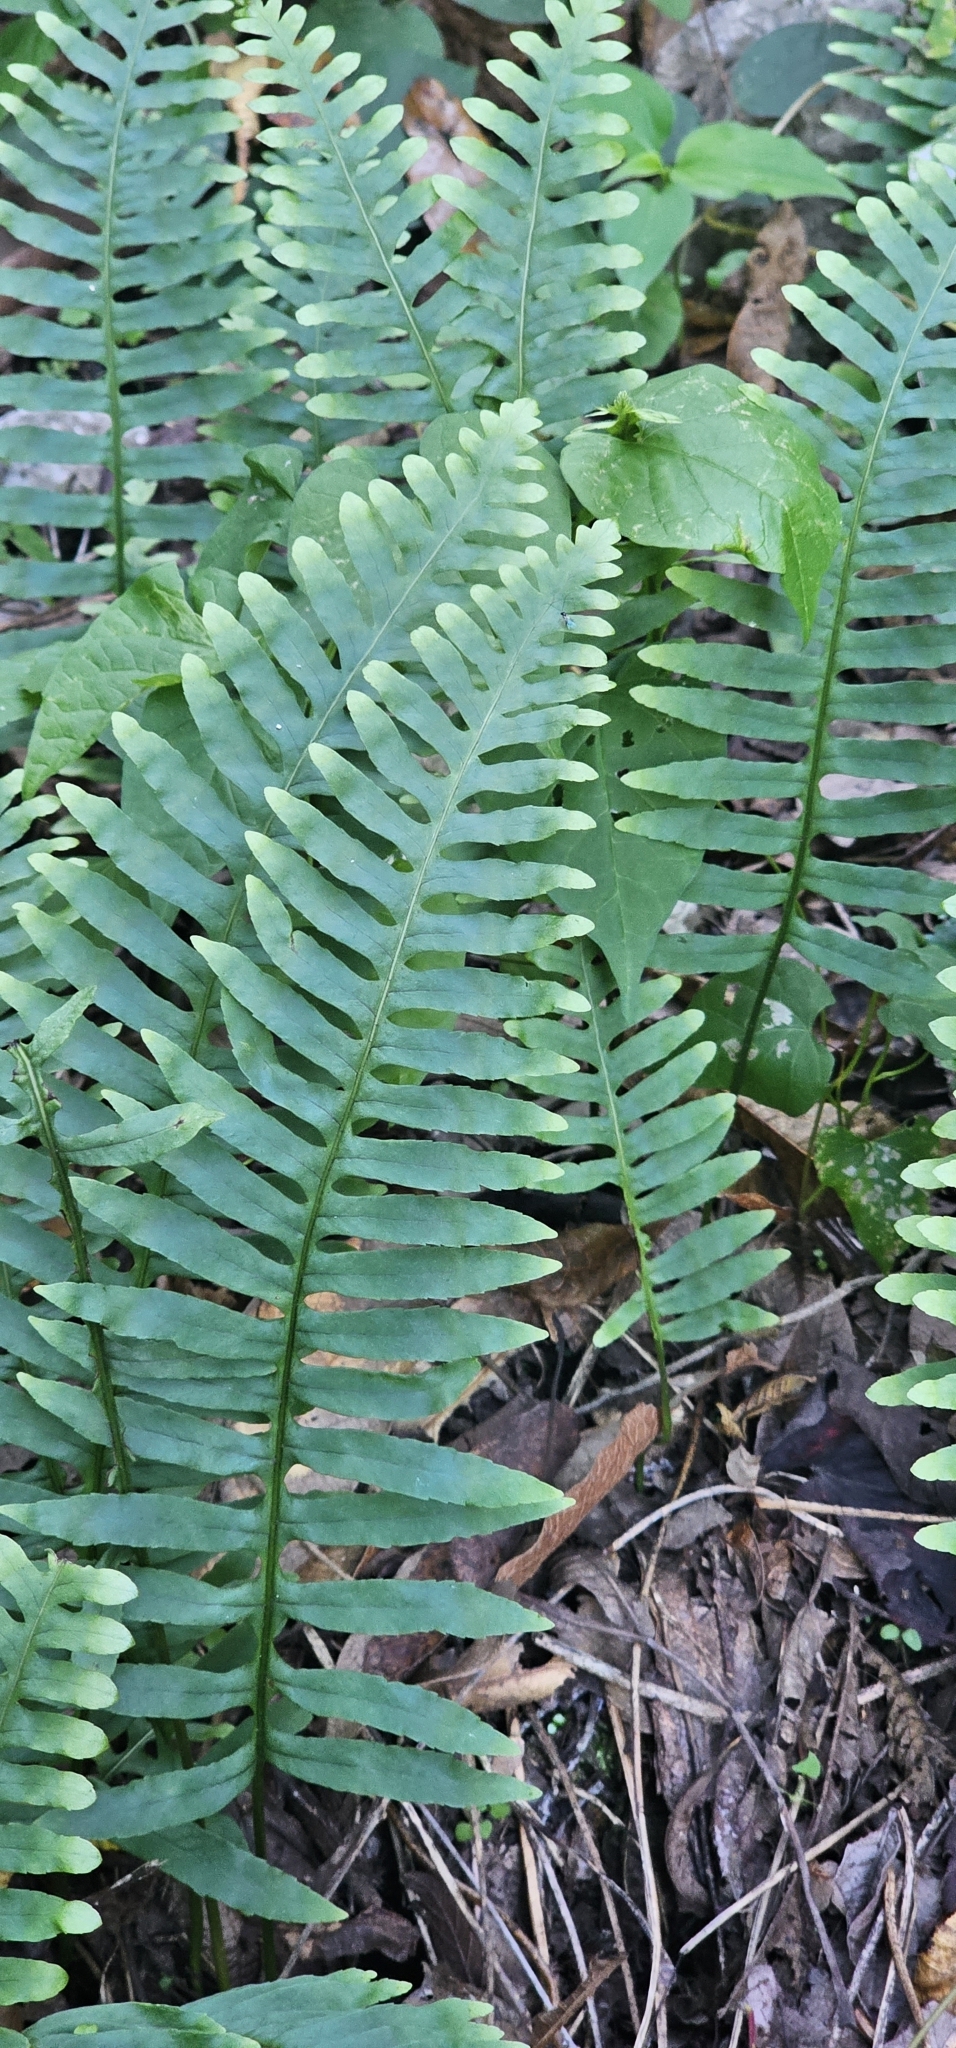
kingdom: Plantae
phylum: Tracheophyta
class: Polypodiopsida
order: Polypodiales
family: Nephrolepidaceae
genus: Nephrolepis
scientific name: Nephrolepis cordifolia
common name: Narrow swordfern
